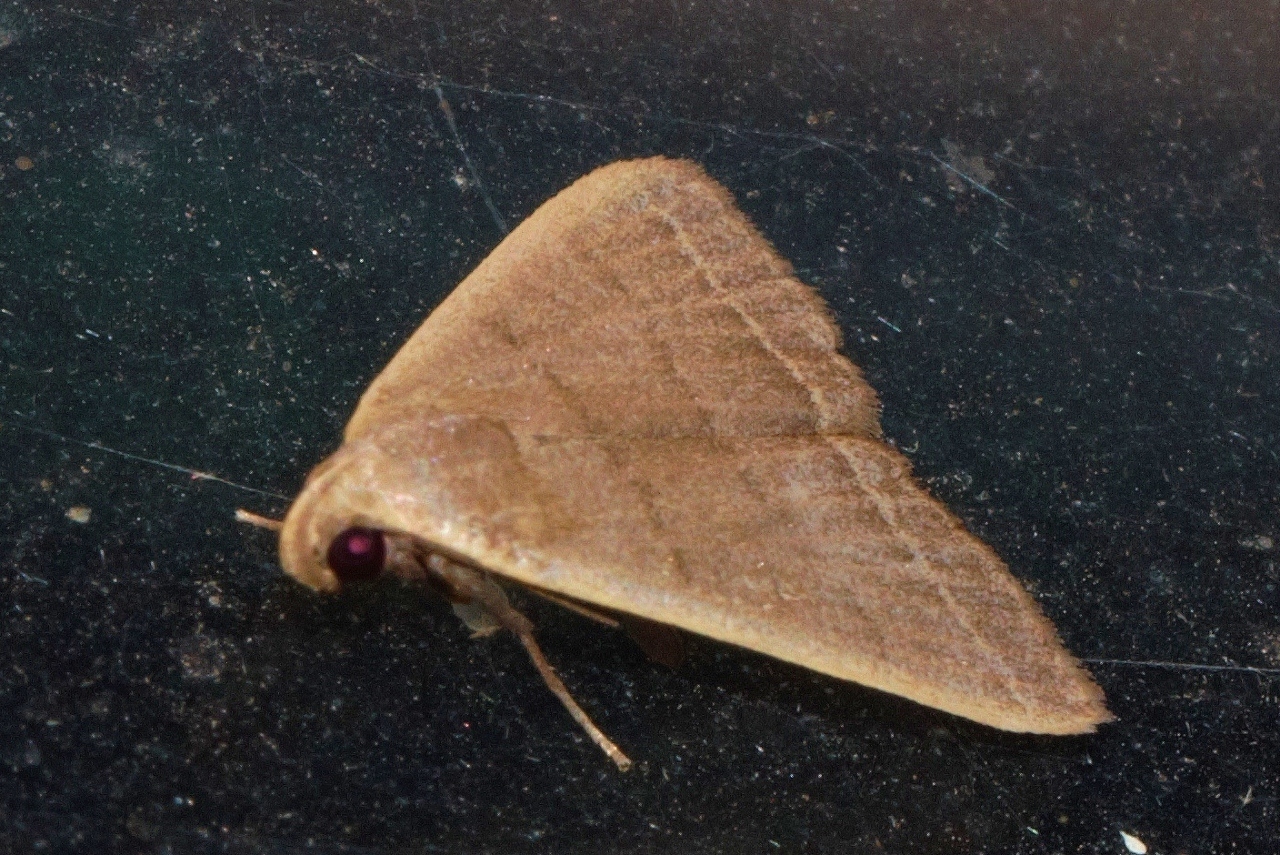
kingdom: Animalia
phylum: Arthropoda
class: Insecta
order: Lepidoptera
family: Erebidae
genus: Simplicia
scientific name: Simplicia extinctalis
